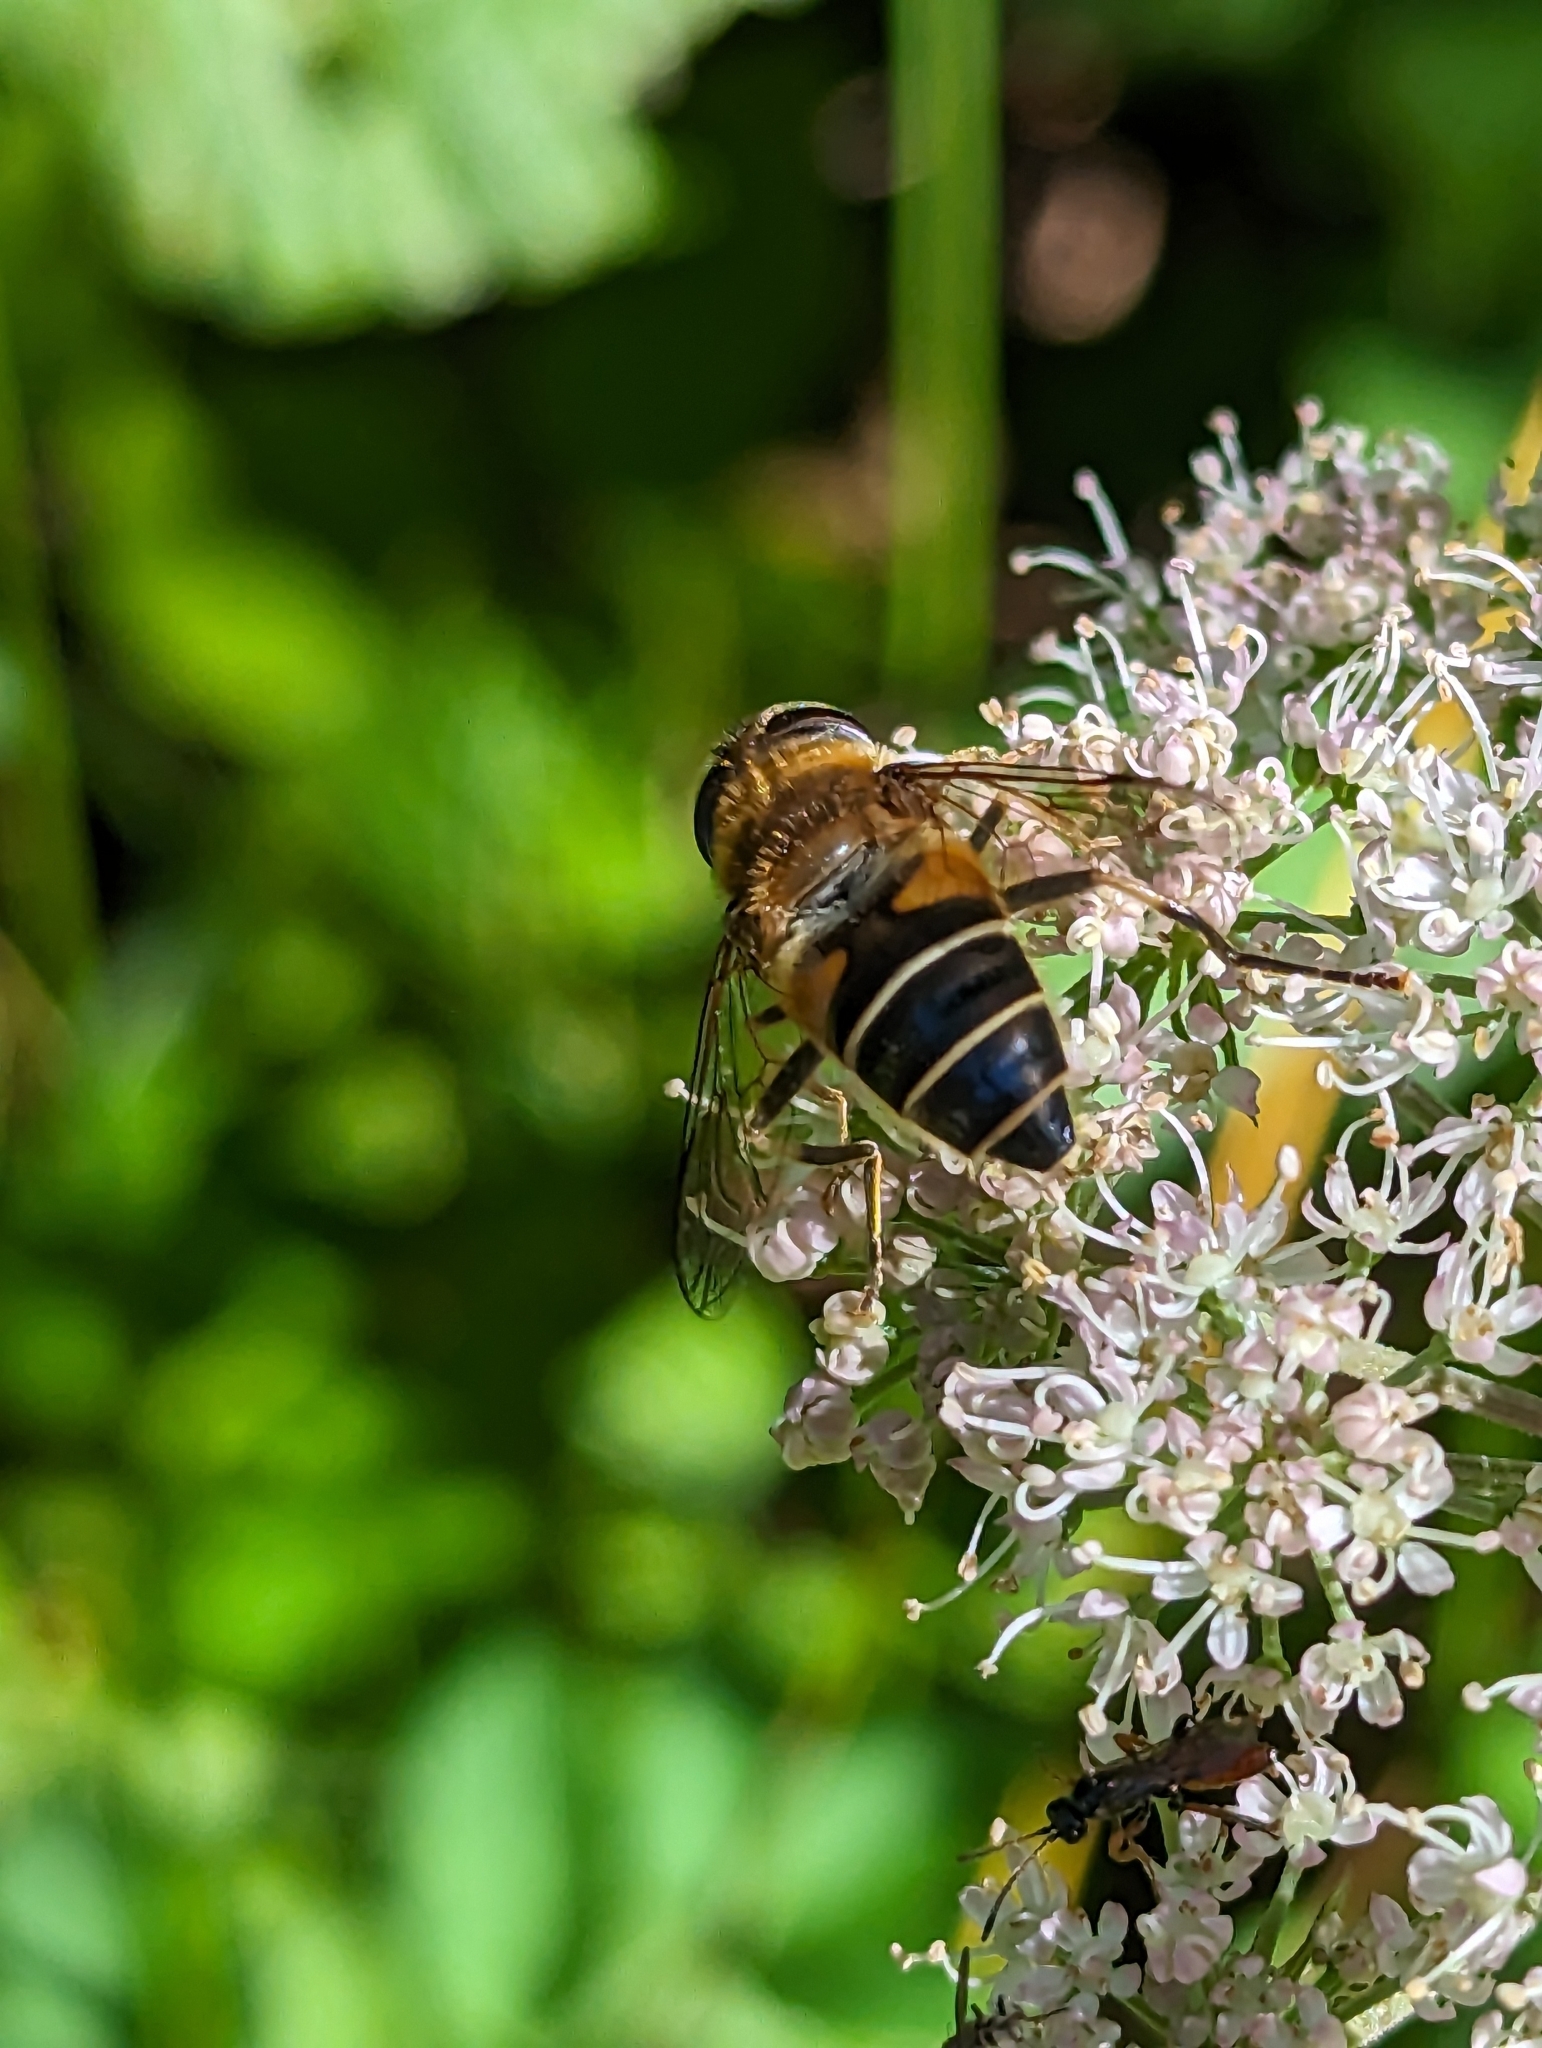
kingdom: Animalia
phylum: Arthropoda
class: Insecta
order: Diptera
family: Syrphidae
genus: Eristalis
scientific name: Eristalis pertinax
